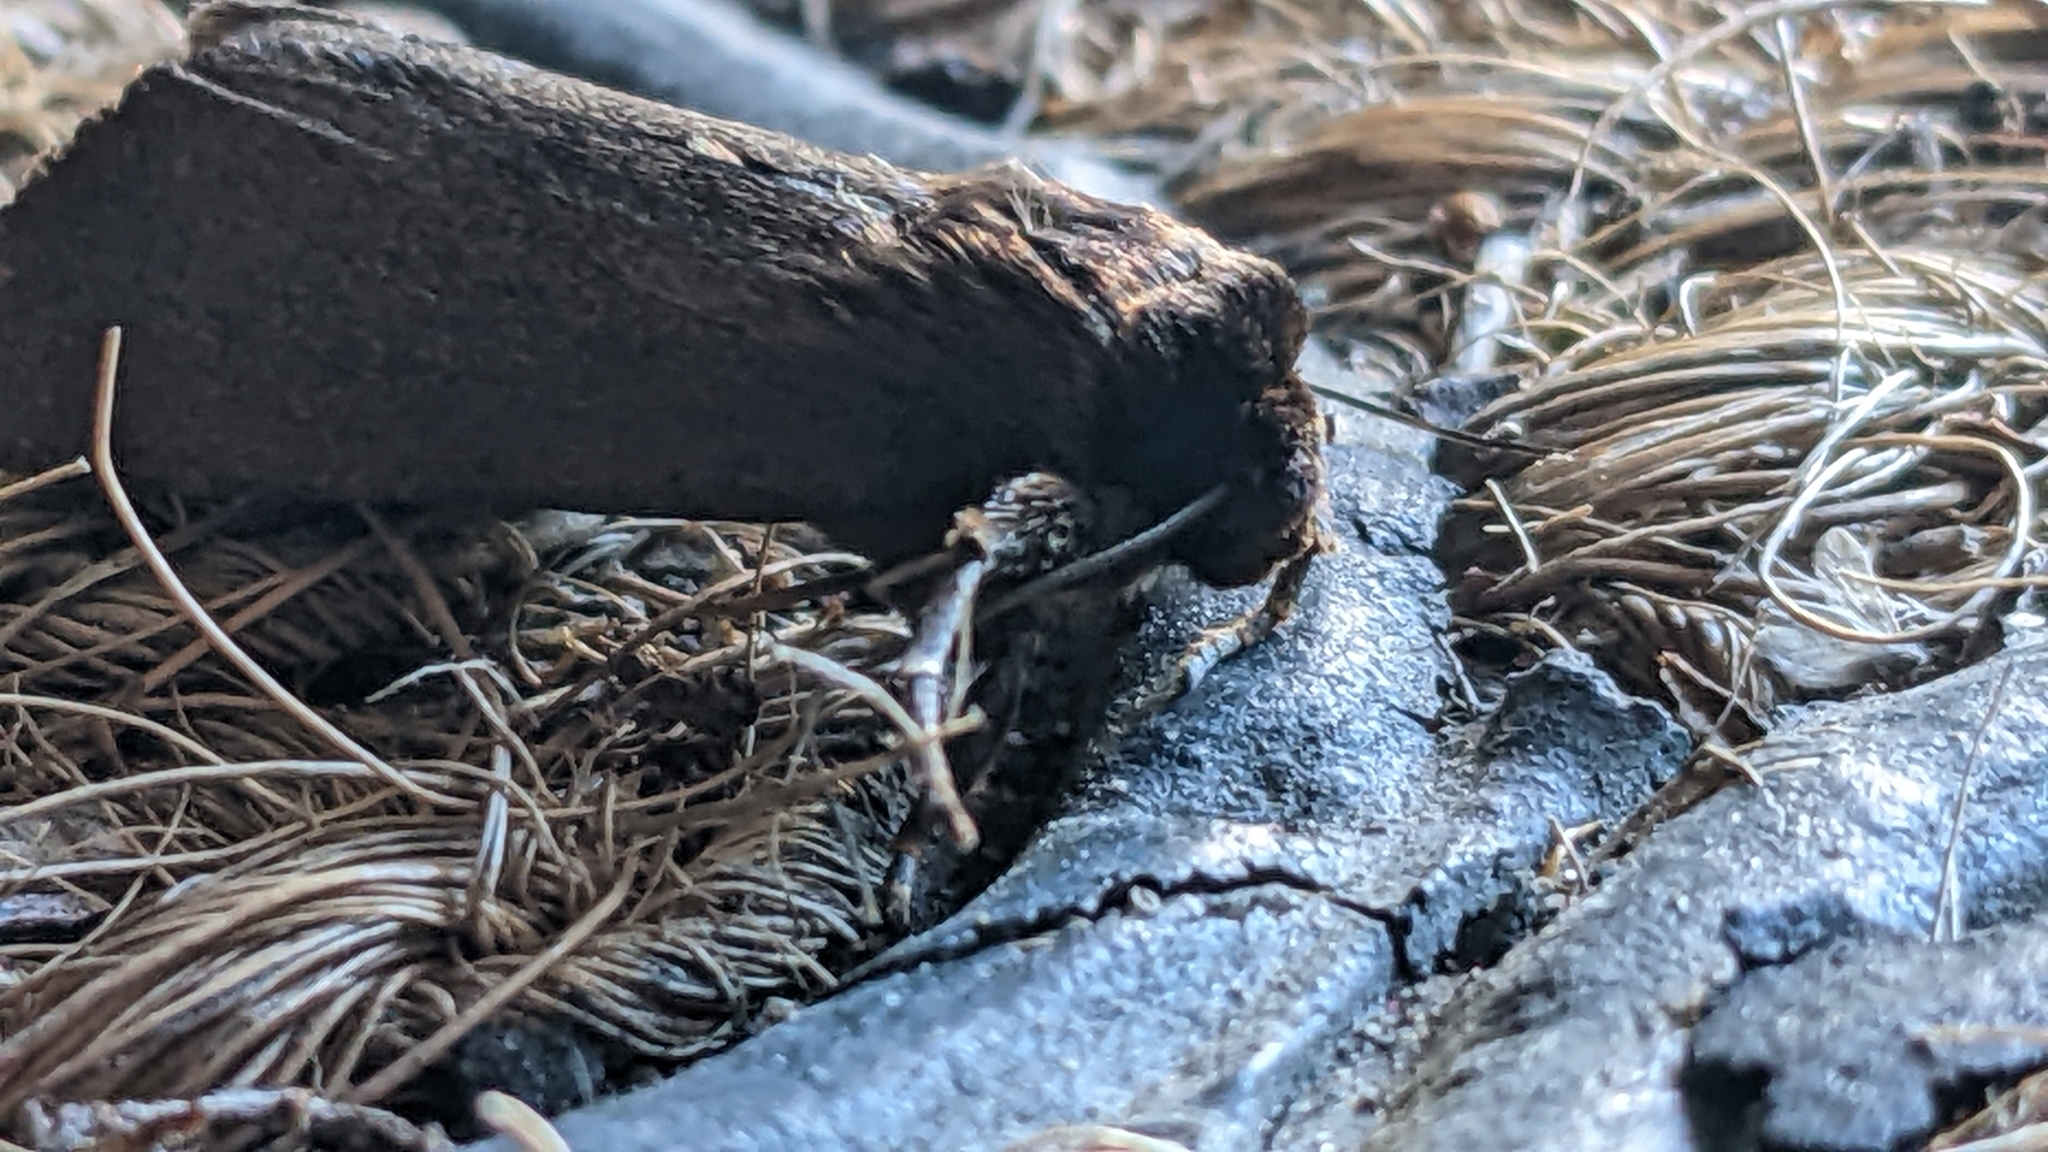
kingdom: Animalia
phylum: Arthropoda
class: Insecta
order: Lepidoptera
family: Noctuidae
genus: Bityla
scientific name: Bityla defigurata
